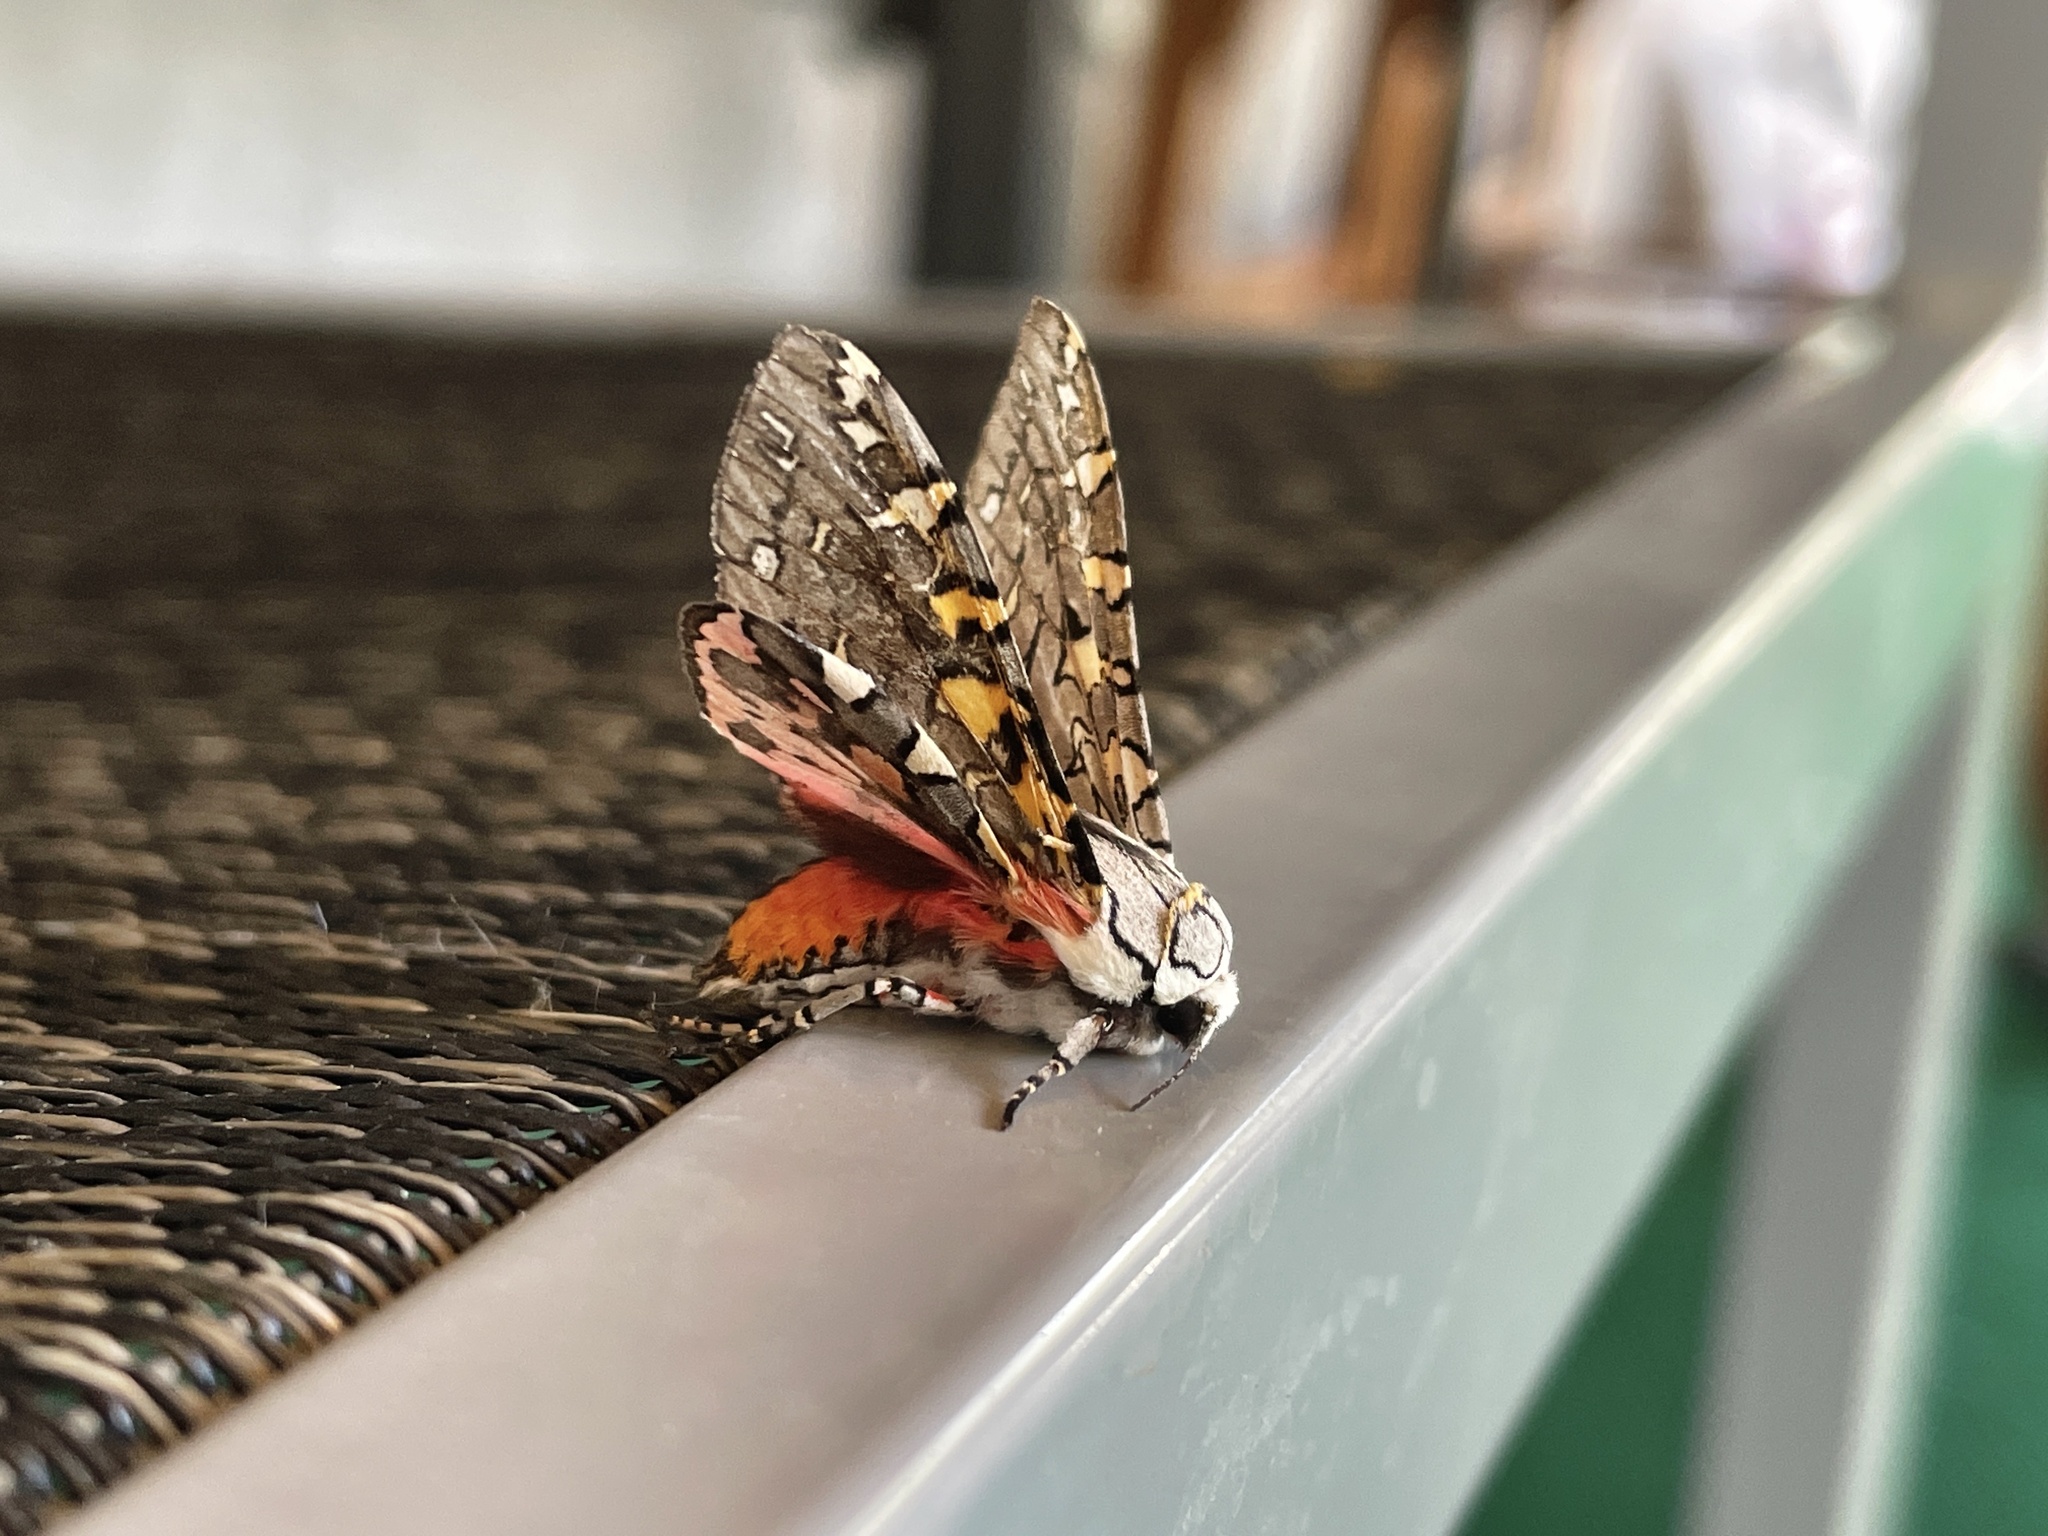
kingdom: Animalia
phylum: Arthropoda
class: Insecta
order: Lepidoptera
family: Erebidae
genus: Arachnis
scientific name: Arachnis picta
